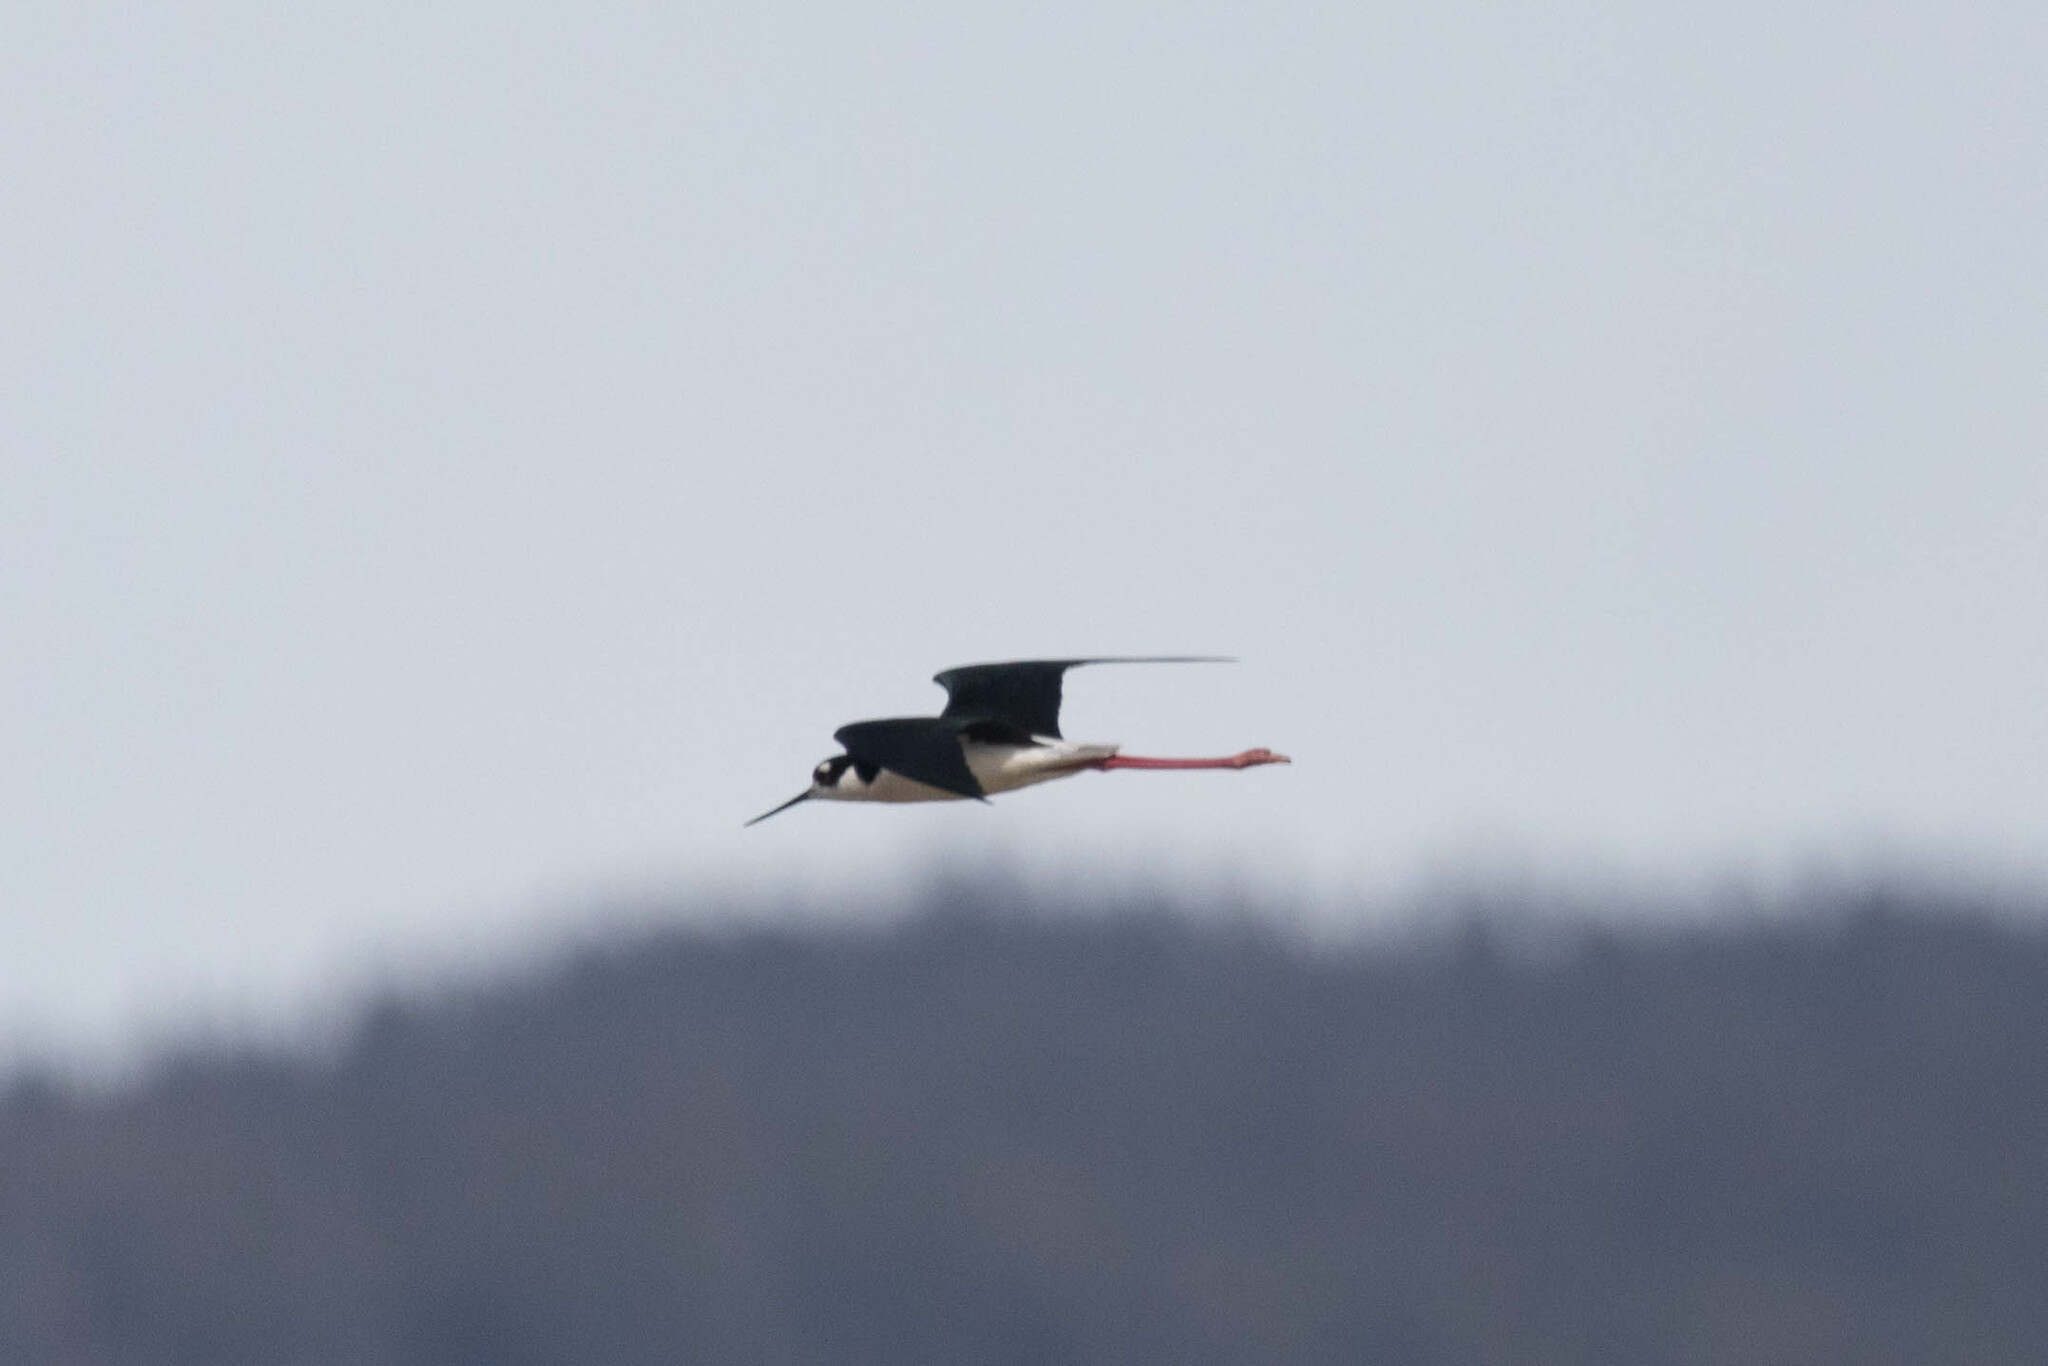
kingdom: Animalia
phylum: Chordata
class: Aves
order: Charadriiformes
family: Recurvirostridae
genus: Himantopus
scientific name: Himantopus mexicanus
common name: Black-necked stilt
